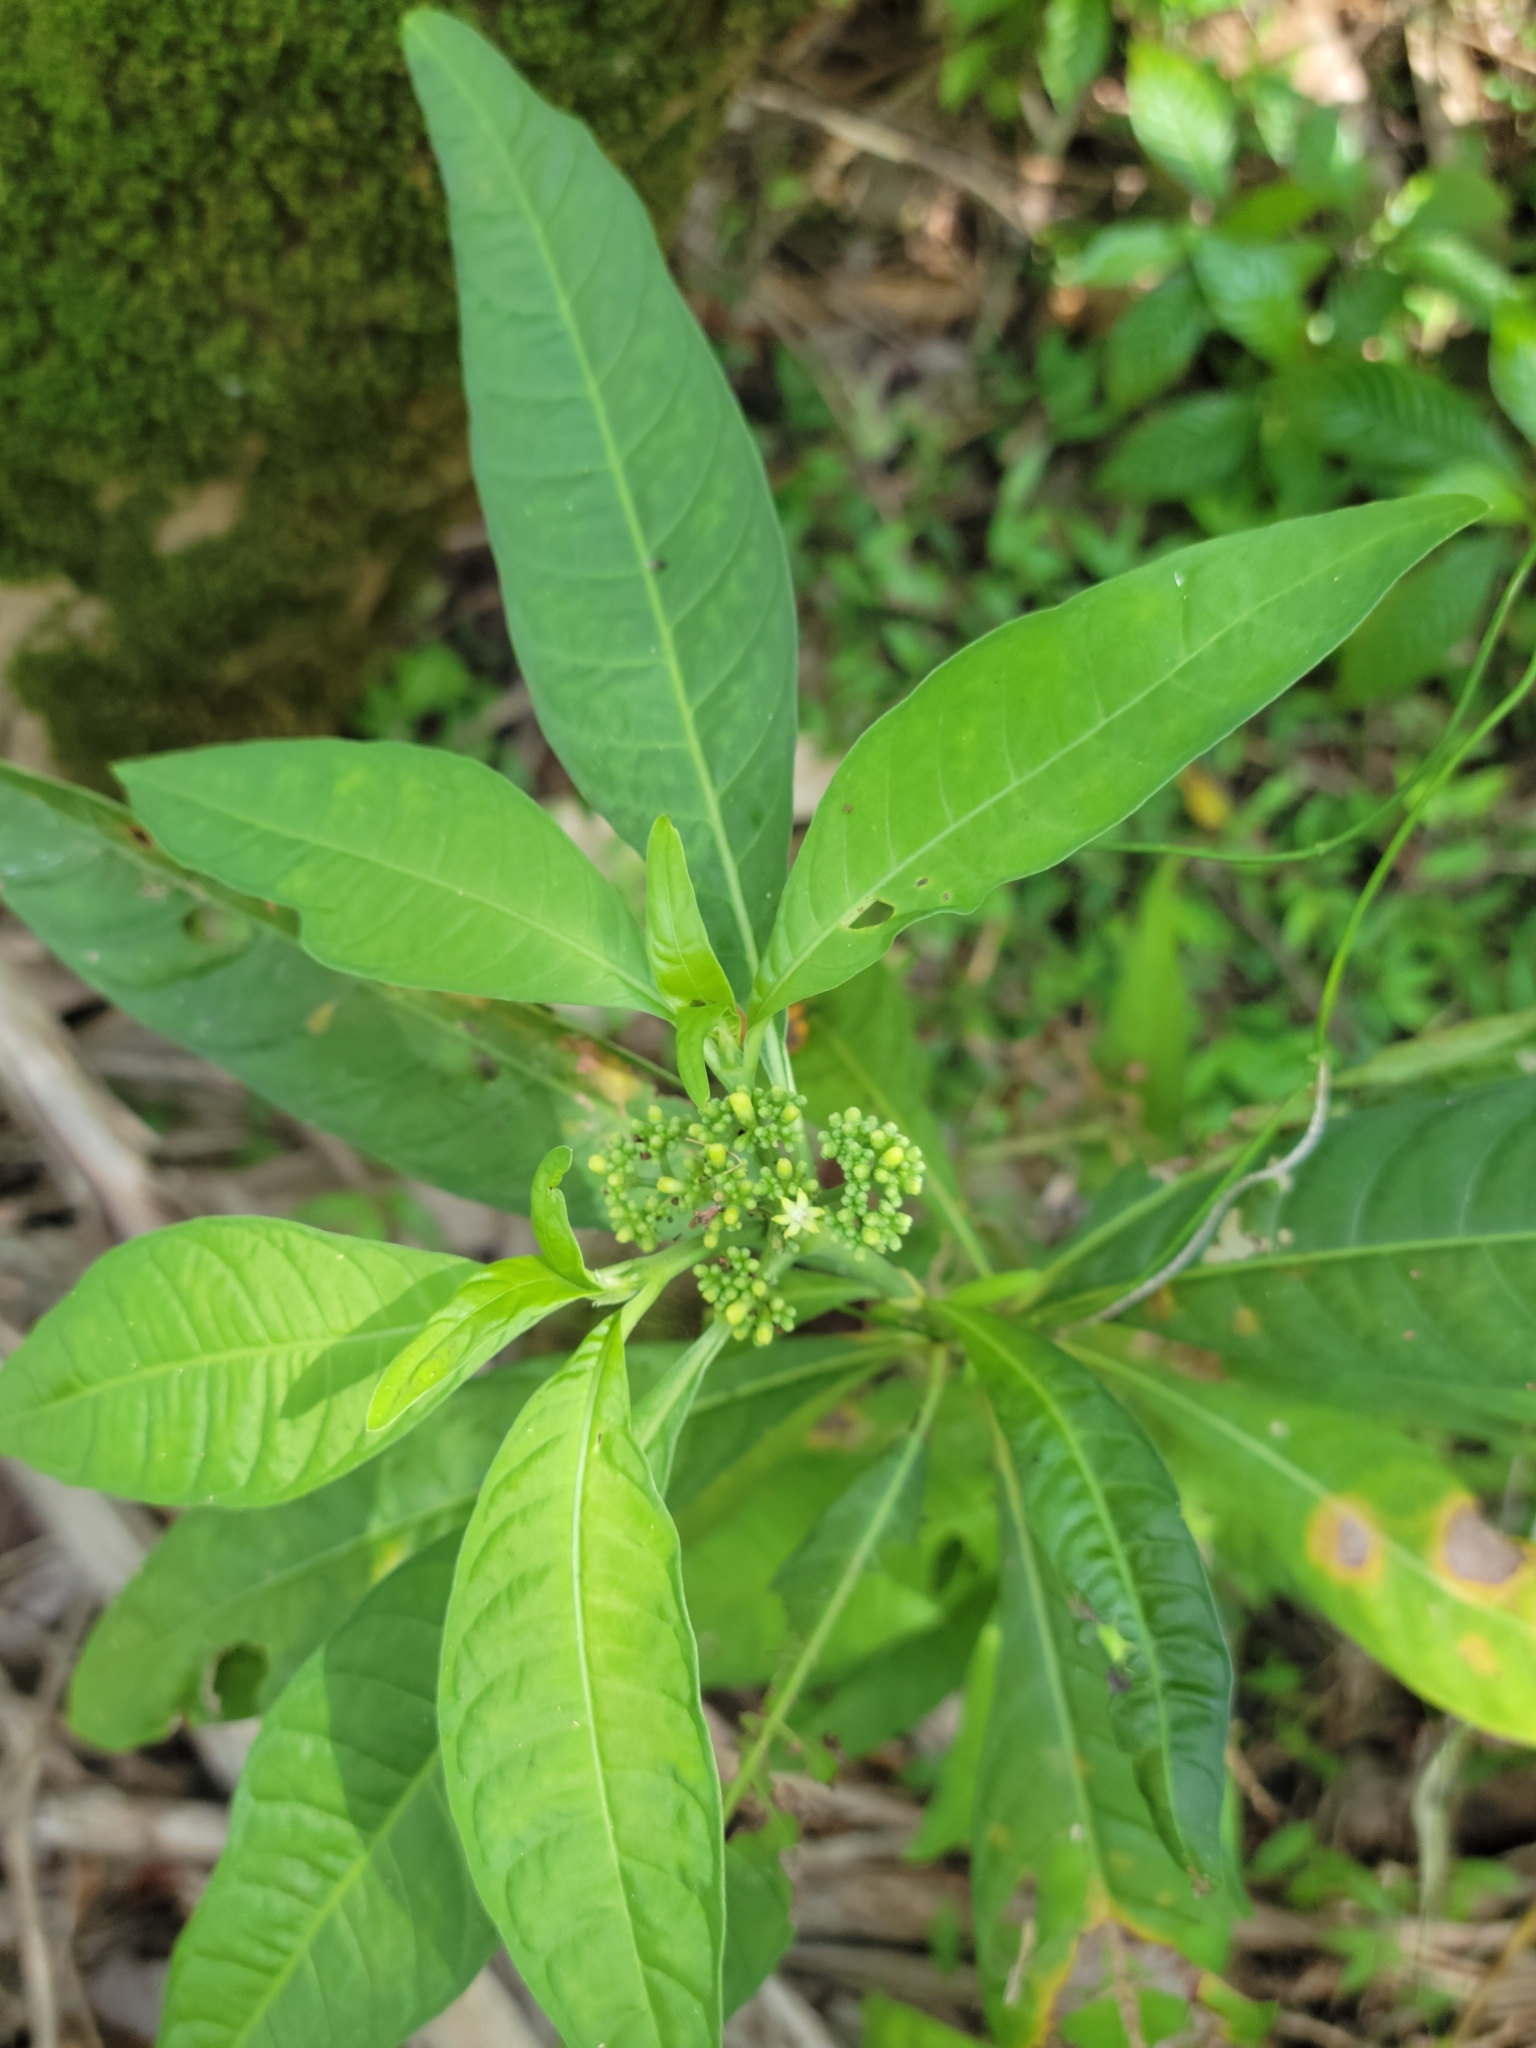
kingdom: Plantae
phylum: Tracheophyta
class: Magnoliopsida
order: Gentianales
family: Rubiaceae
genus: Psychotria
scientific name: Psychotria tenuifolia
